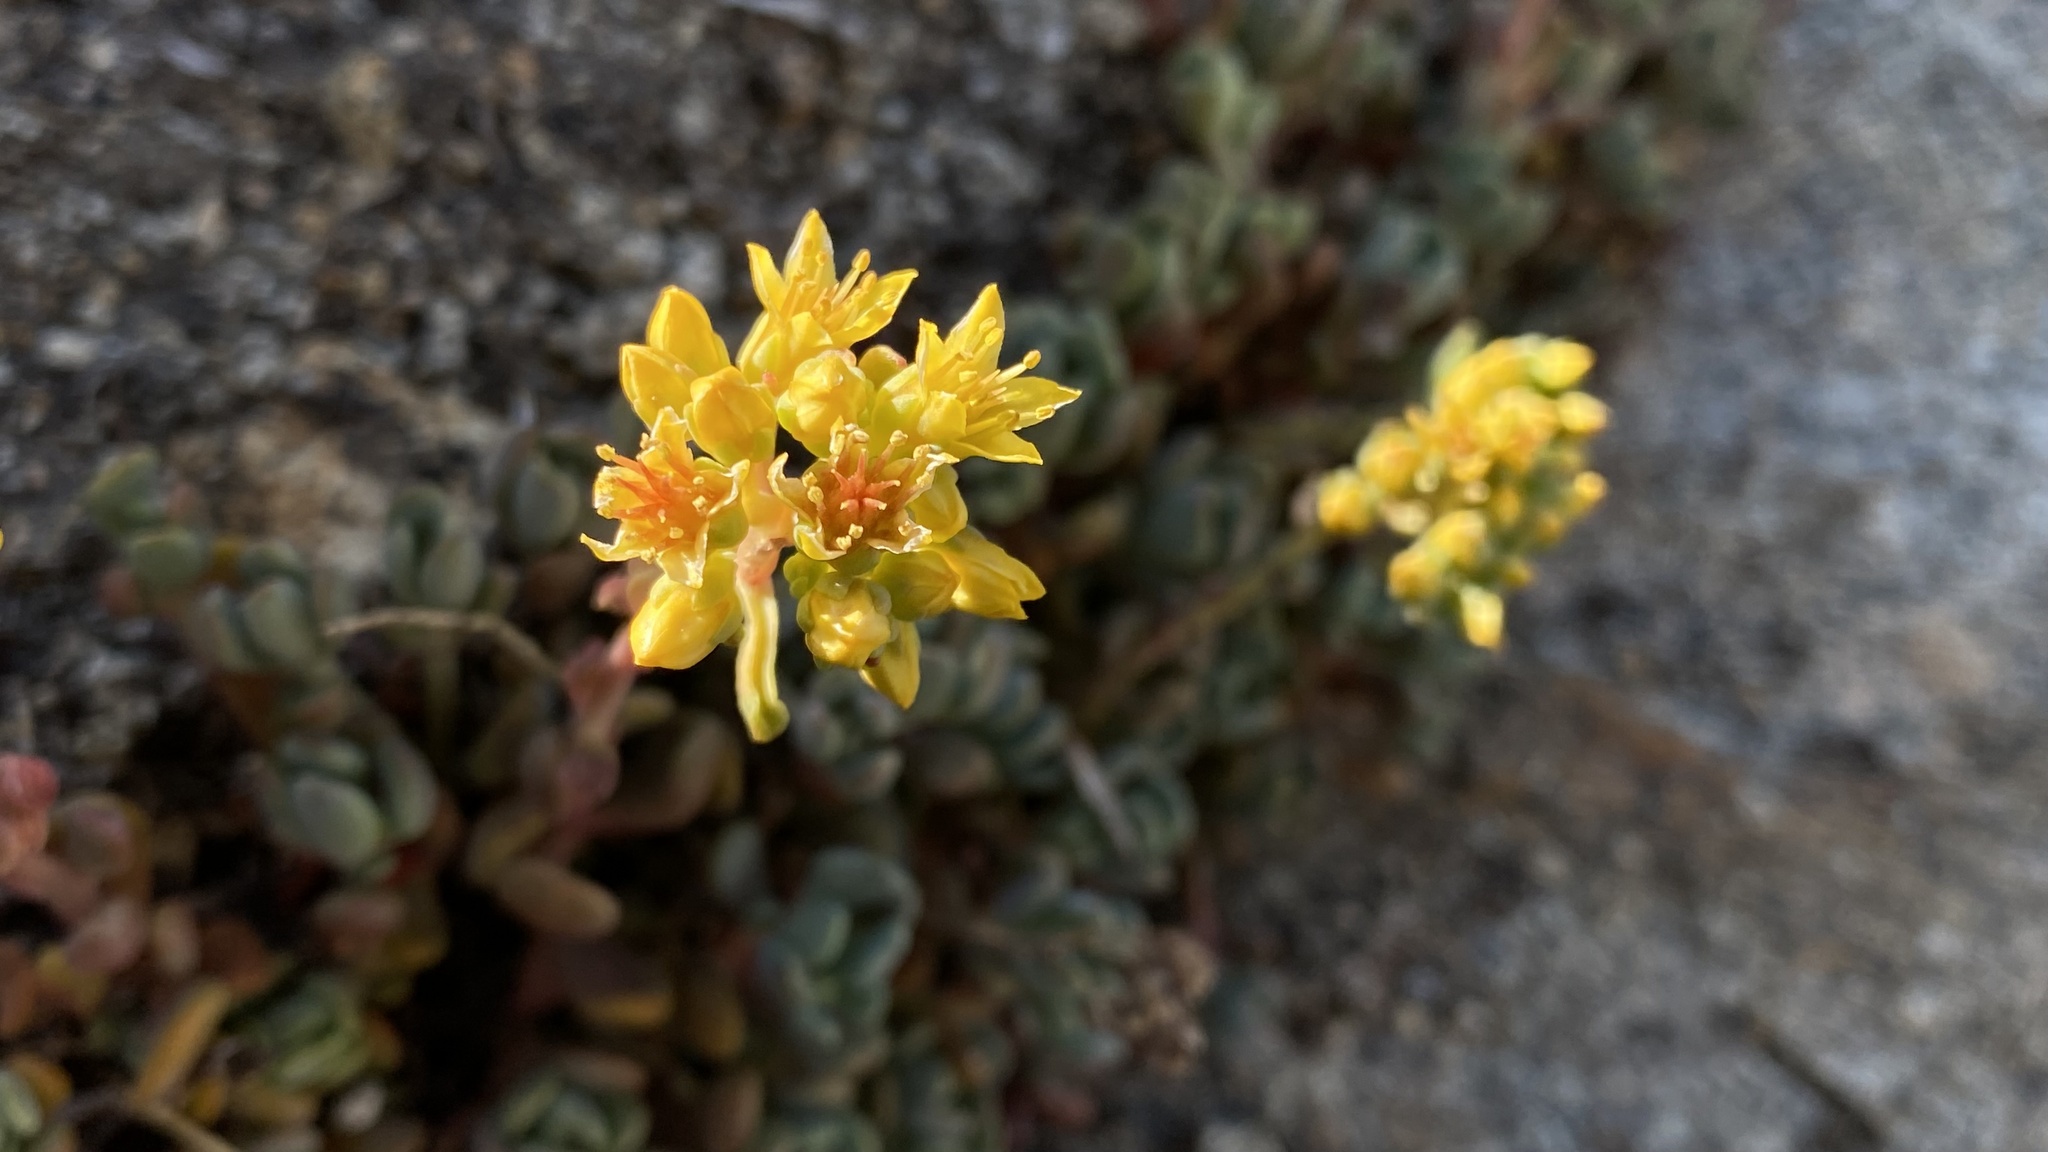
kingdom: Plantae
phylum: Tracheophyta
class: Magnoliopsida
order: Saxifragales
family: Crassulaceae
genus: Sedum
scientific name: Sedum obtusatum
